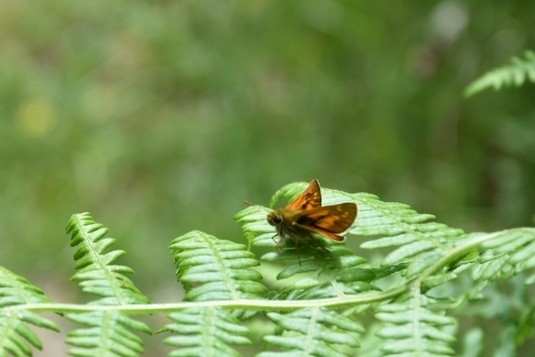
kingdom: Animalia
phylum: Arthropoda
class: Insecta
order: Lepidoptera
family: Hesperiidae
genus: Ochlodes
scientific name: Ochlodes venata
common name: Large skipper
